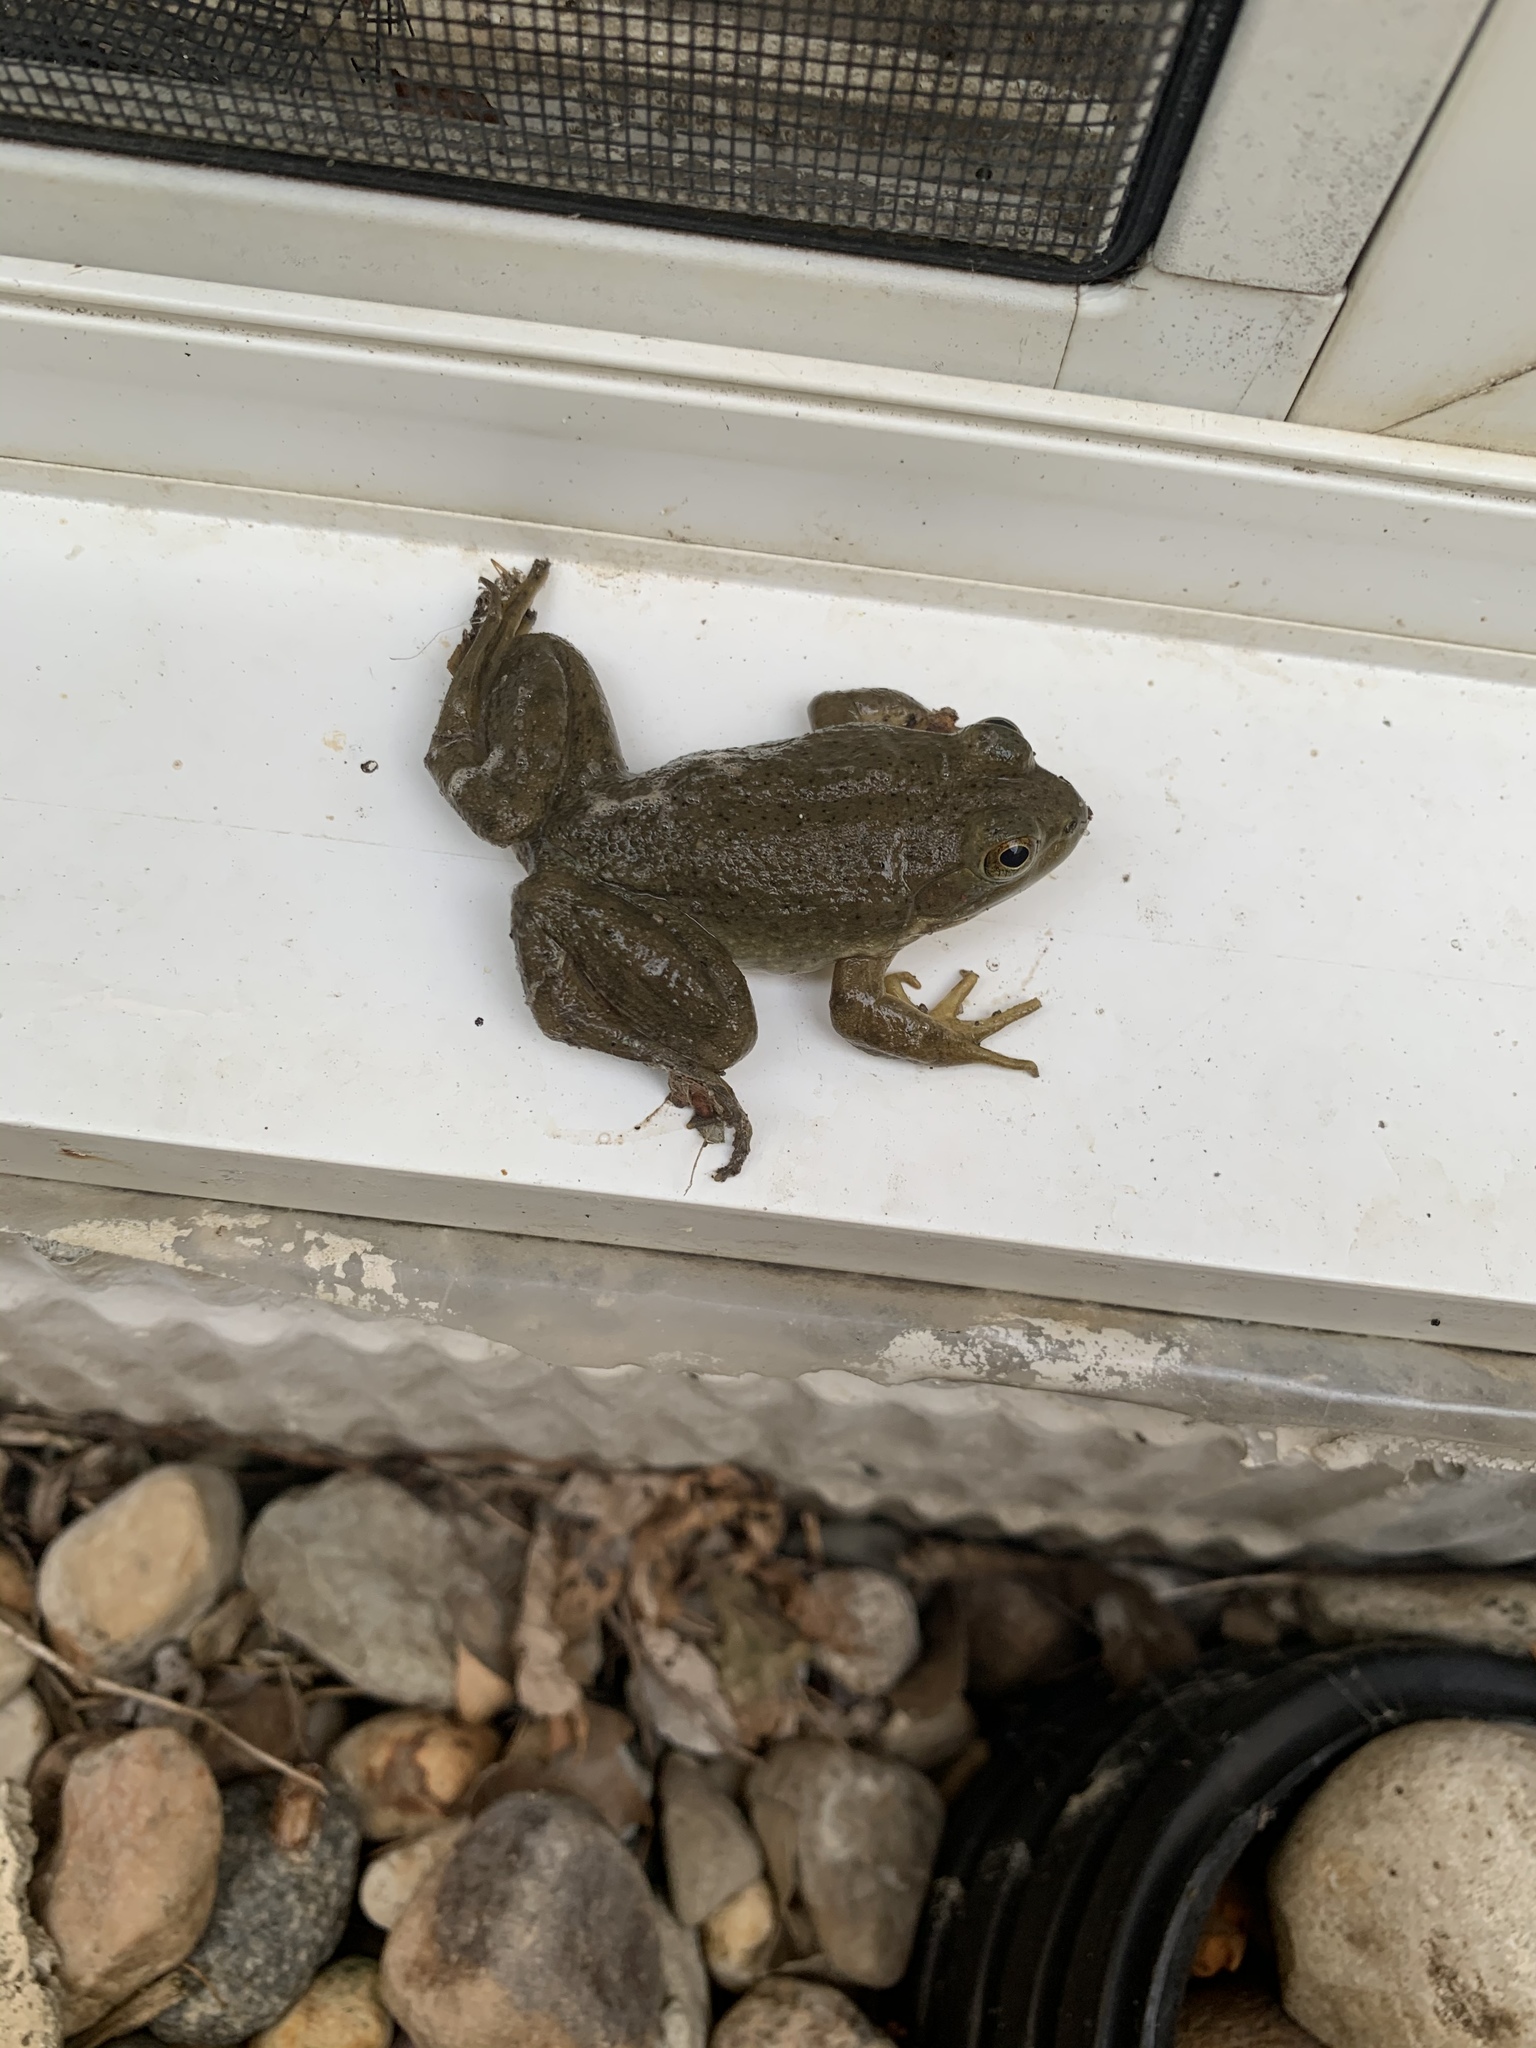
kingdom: Animalia
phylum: Chordata
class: Amphibia
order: Anura
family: Ranidae
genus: Lithobates
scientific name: Lithobates catesbeianus
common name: American bullfrog
